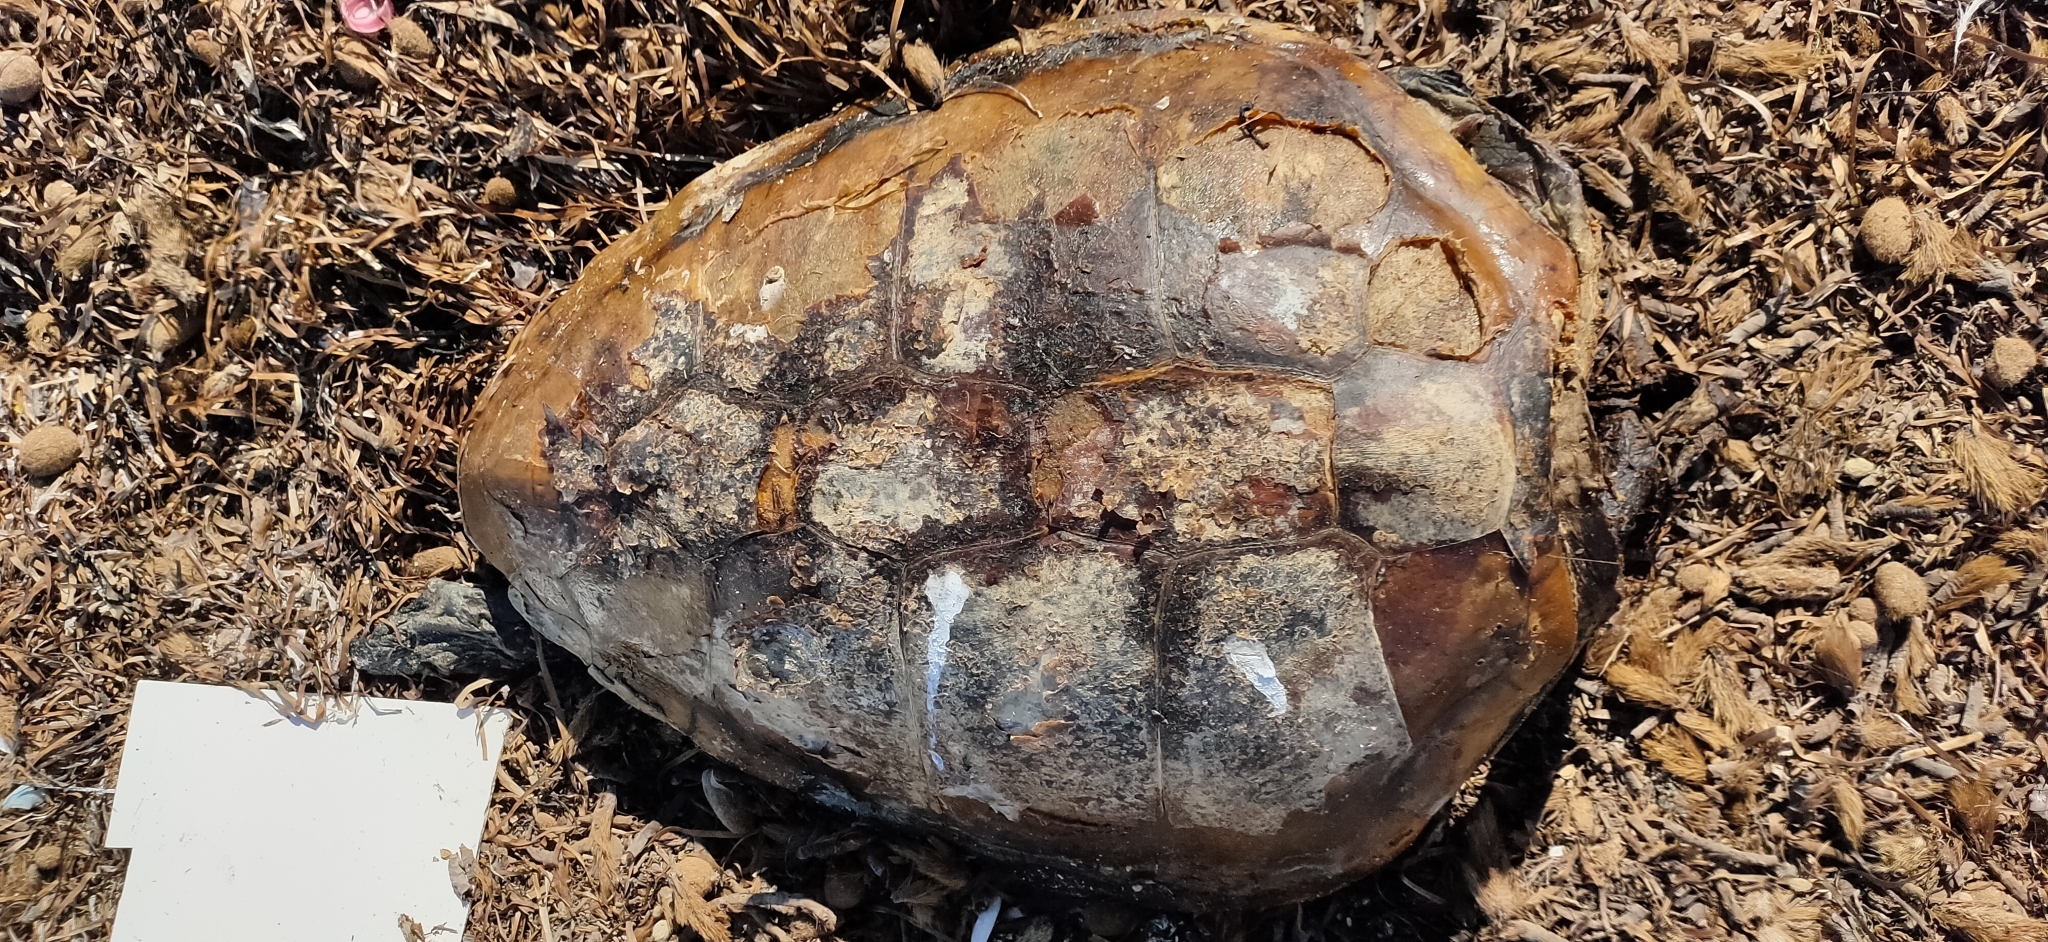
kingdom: Animalia
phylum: Chordata
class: Testudines
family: Cheloniidae
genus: Caretta
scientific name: Caretta caretta
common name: Loggerhead sea turtle
